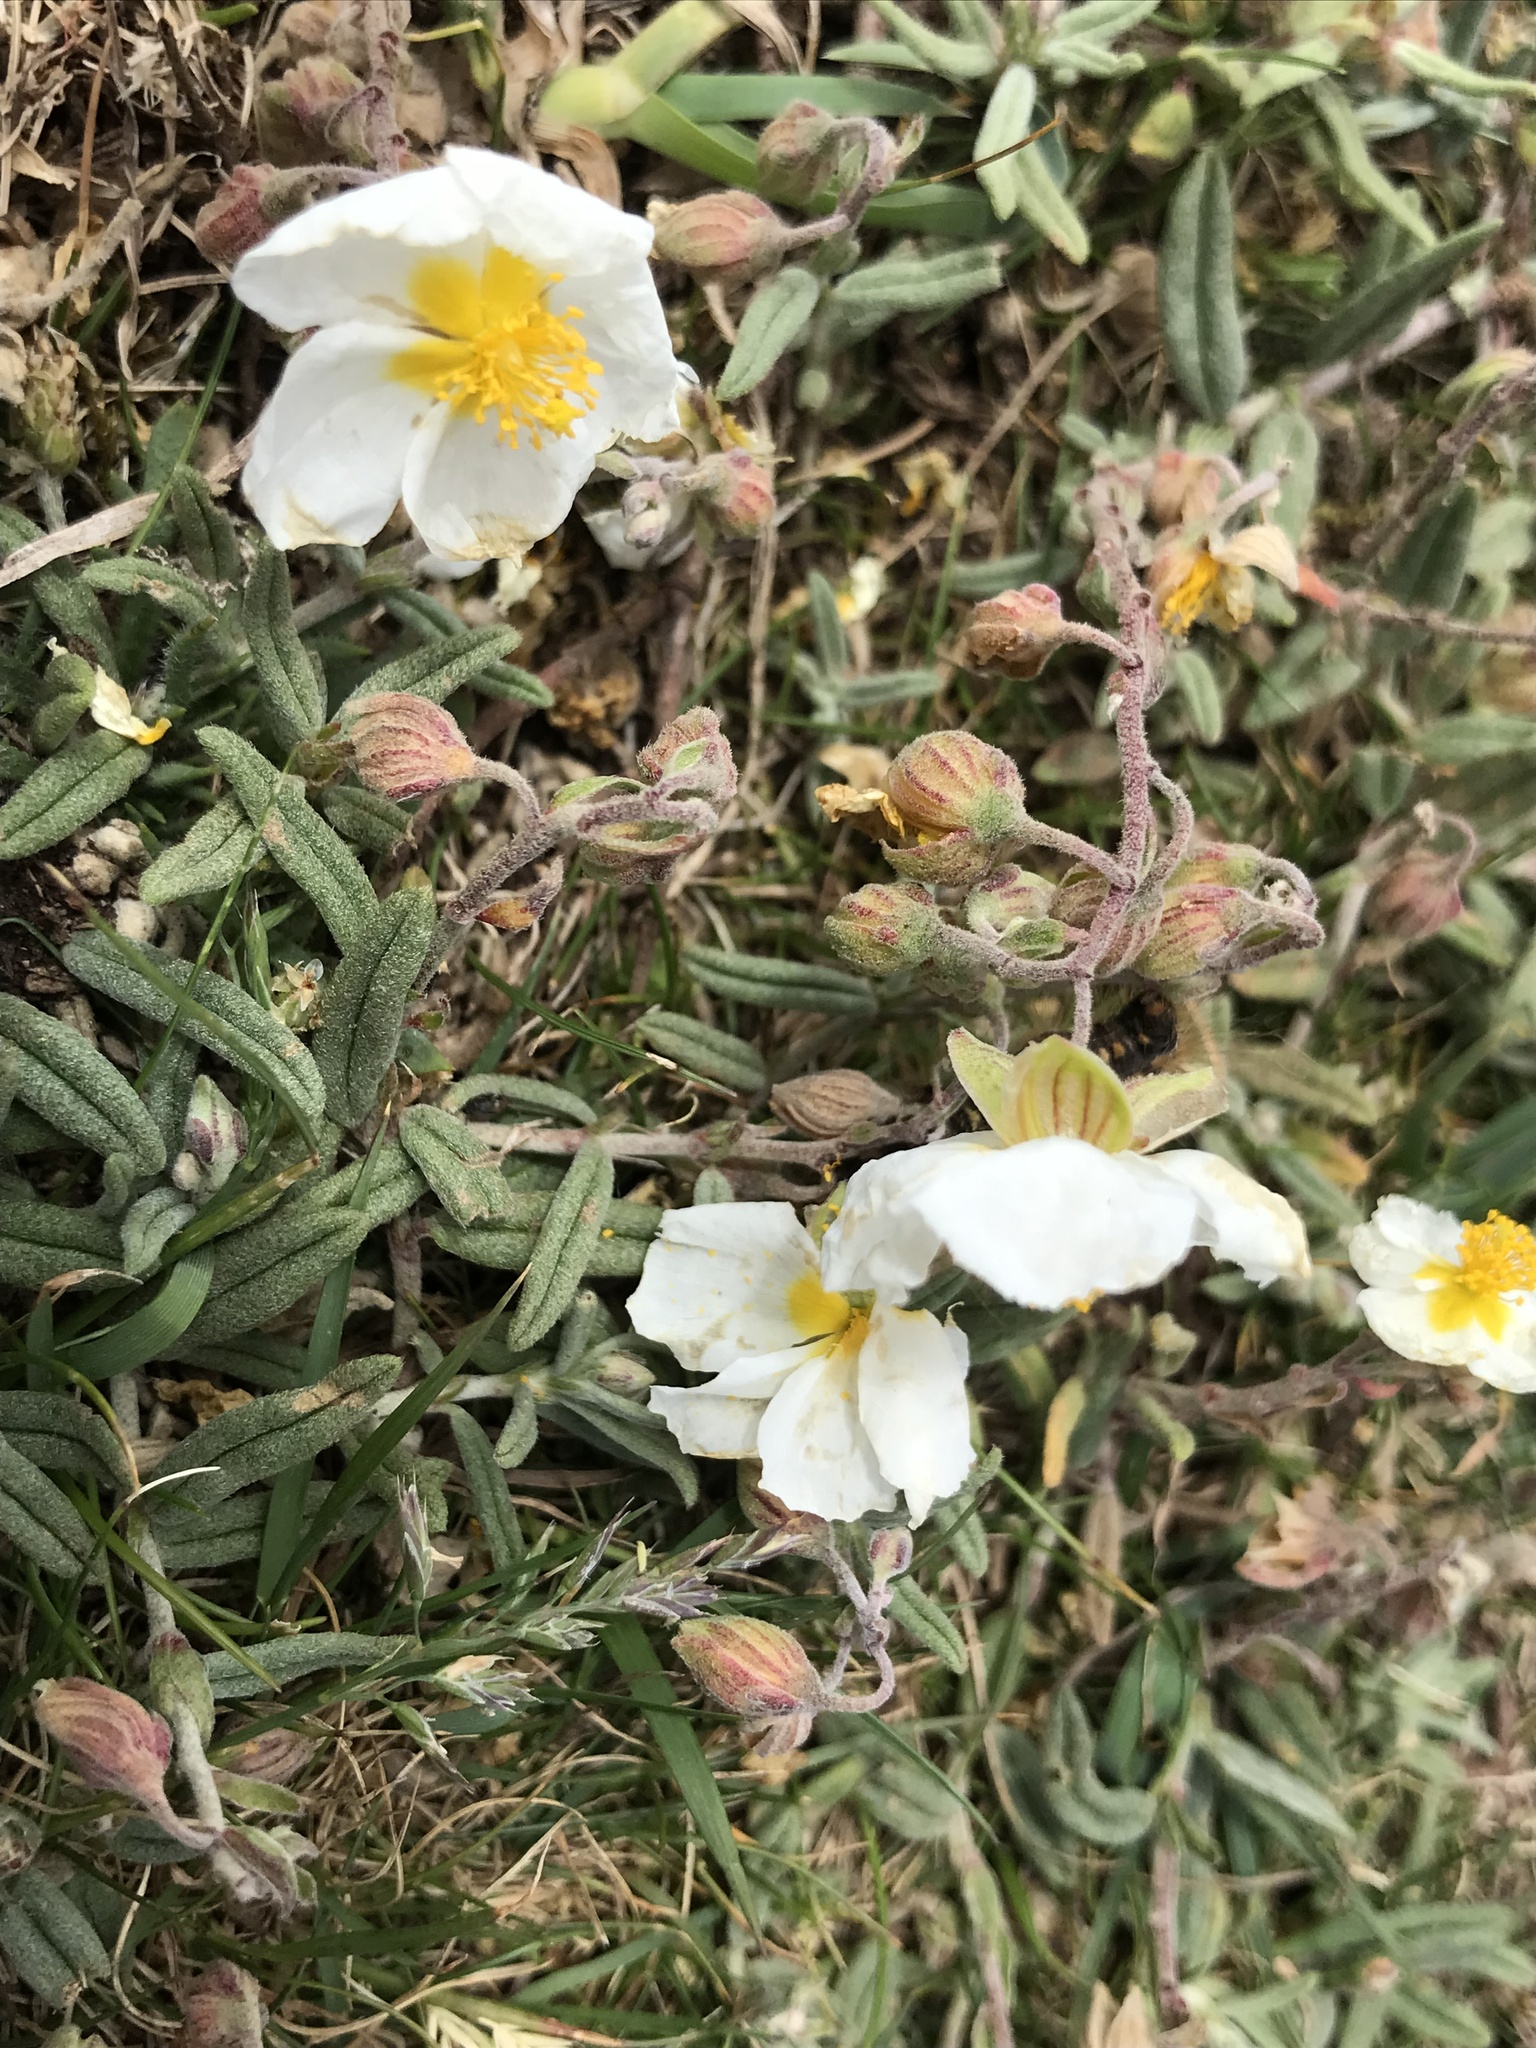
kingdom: Plantae
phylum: Tracheophyta
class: Magnoliopsida
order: Malvales
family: Cistaceae
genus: Helianthemum
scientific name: Helianthemum apenninum
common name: White rock-rose
